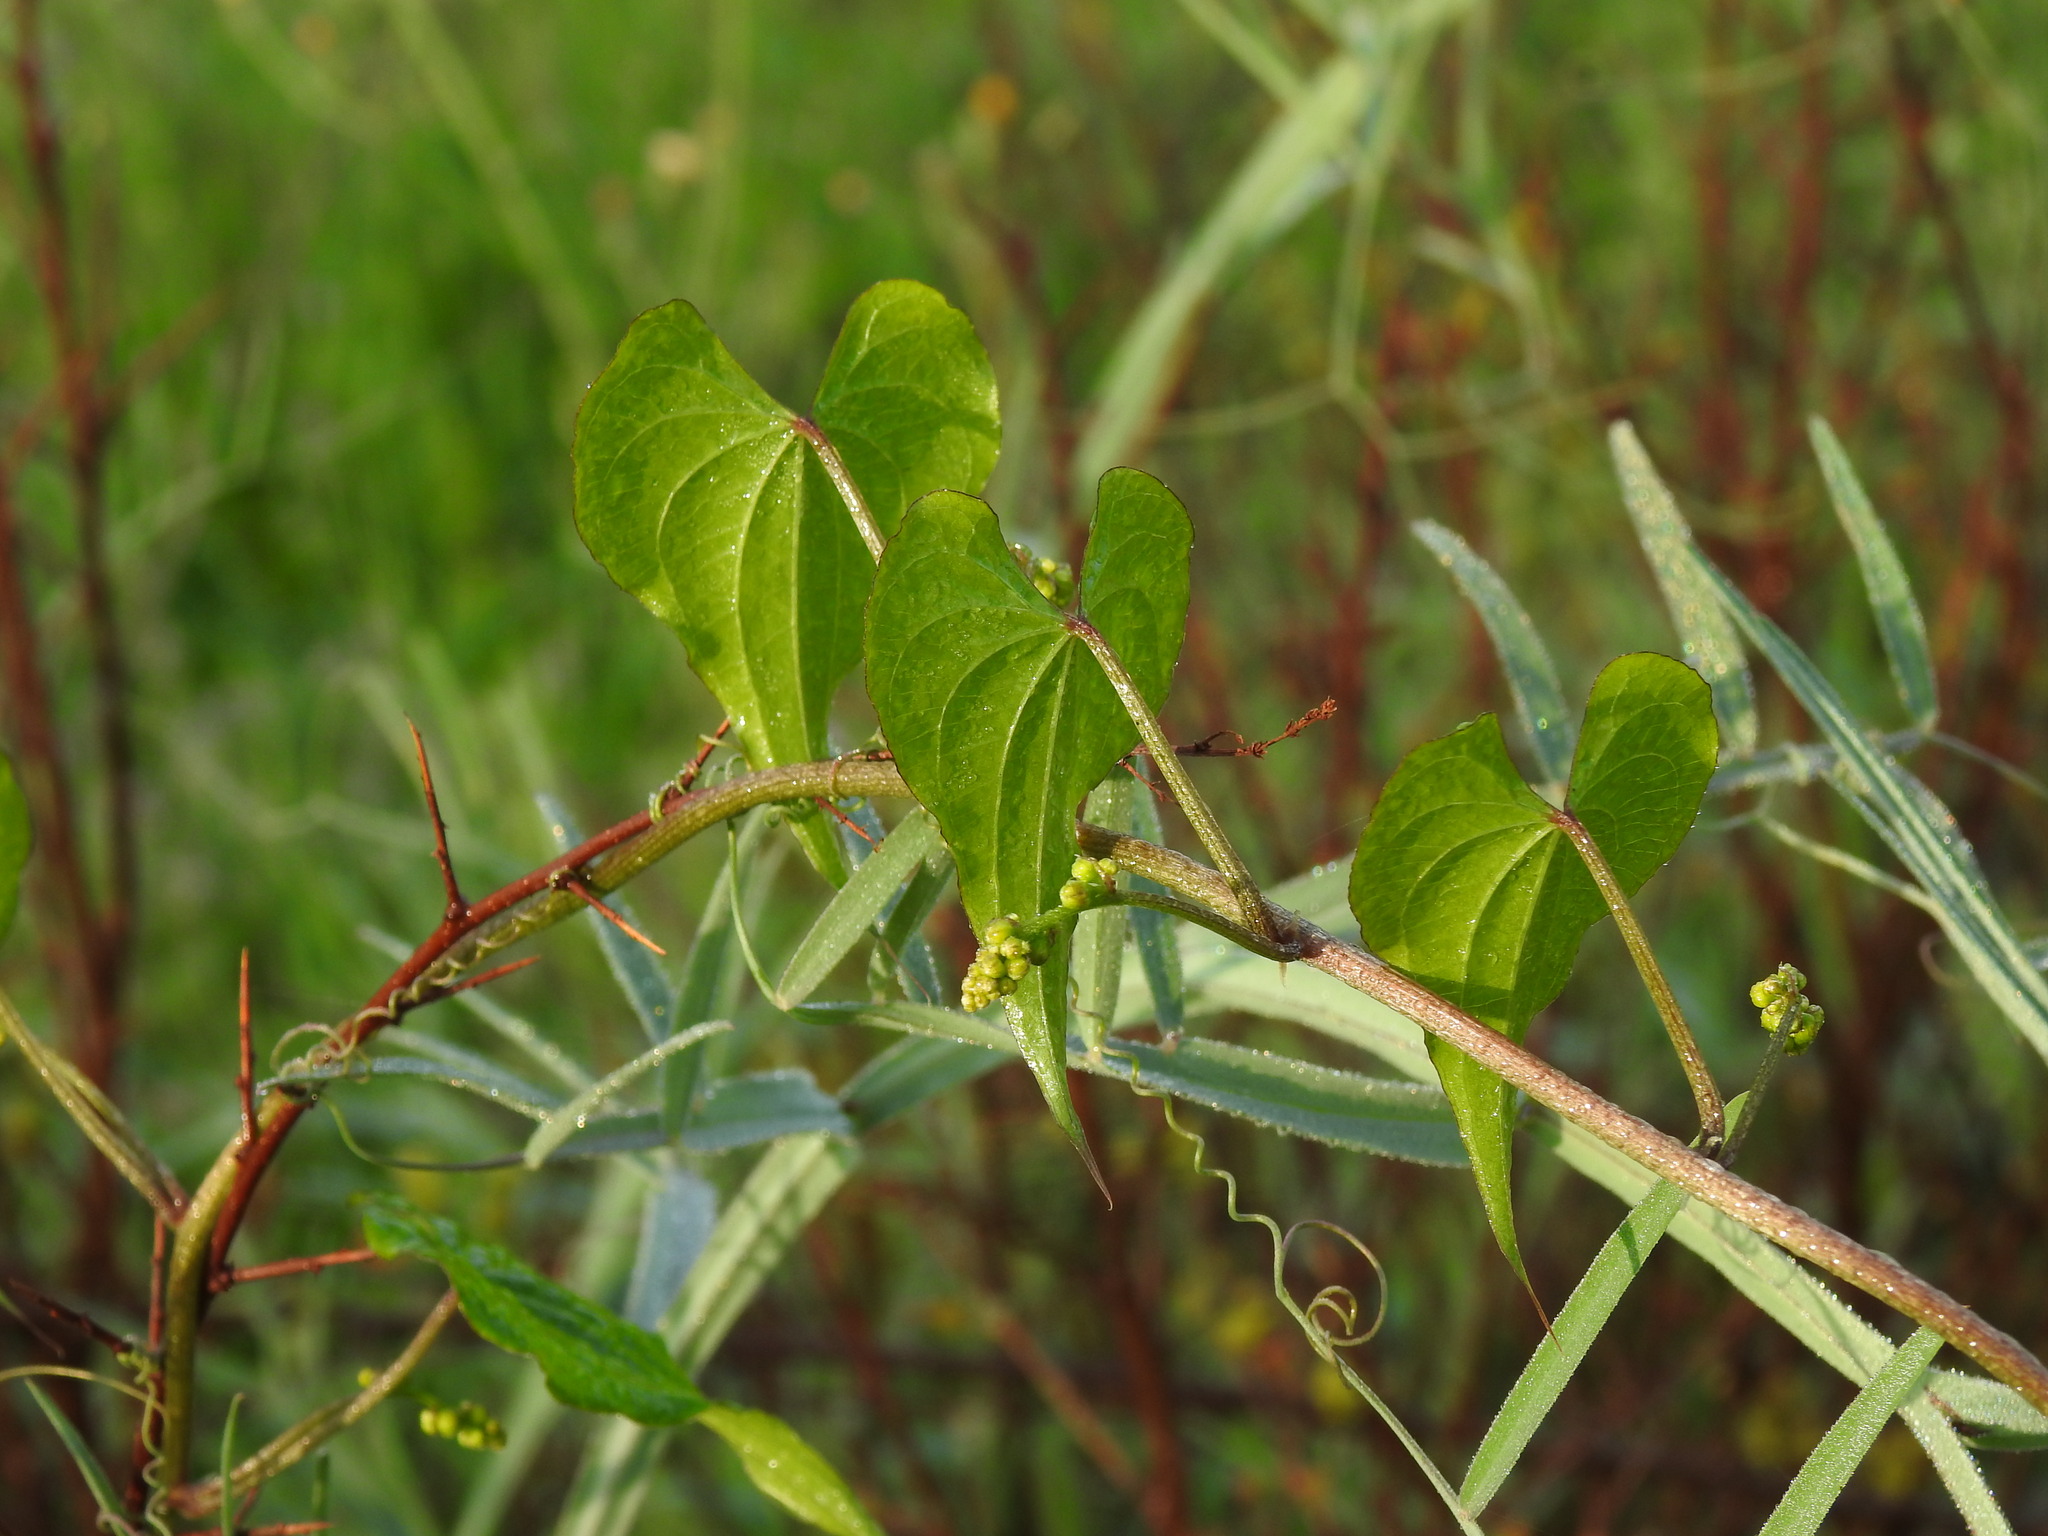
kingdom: Plantae
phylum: Tracheophyta
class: Liliopsida
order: Dioscoreales
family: Dioscoreaceae
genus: Dioscorea
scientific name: Dioscorea communis
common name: Black-bindweed
